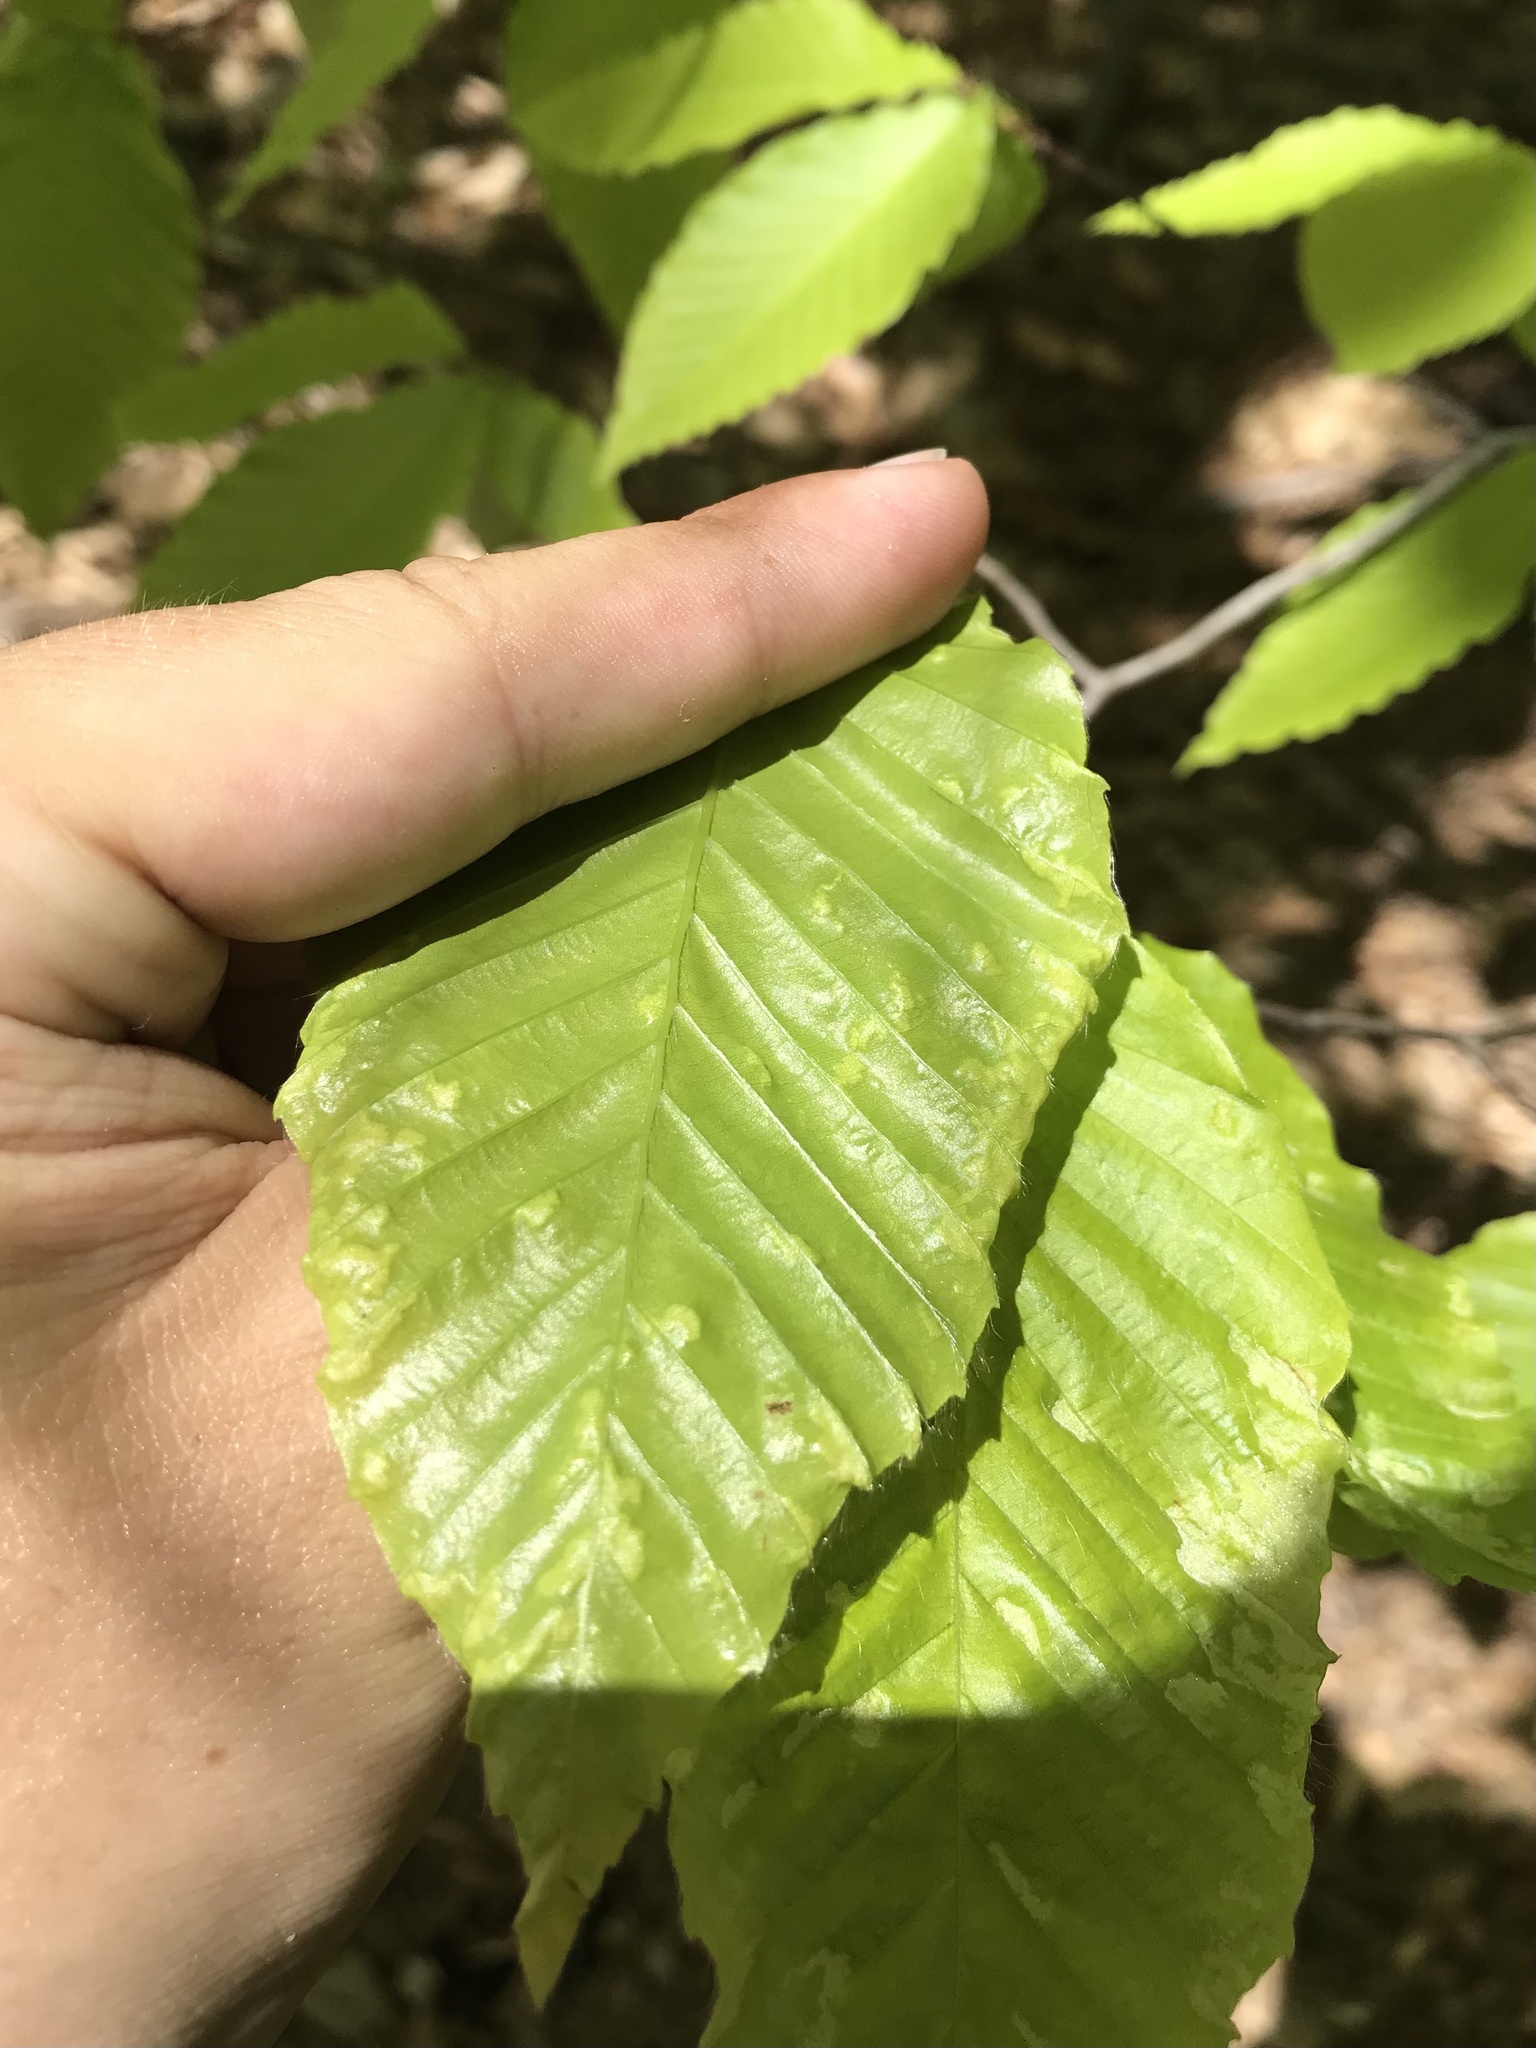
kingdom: Animalia
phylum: Arthropoda
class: Arachnida
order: Trombidiformes
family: Eriophyidae
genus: Acalitus
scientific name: Acalitus
